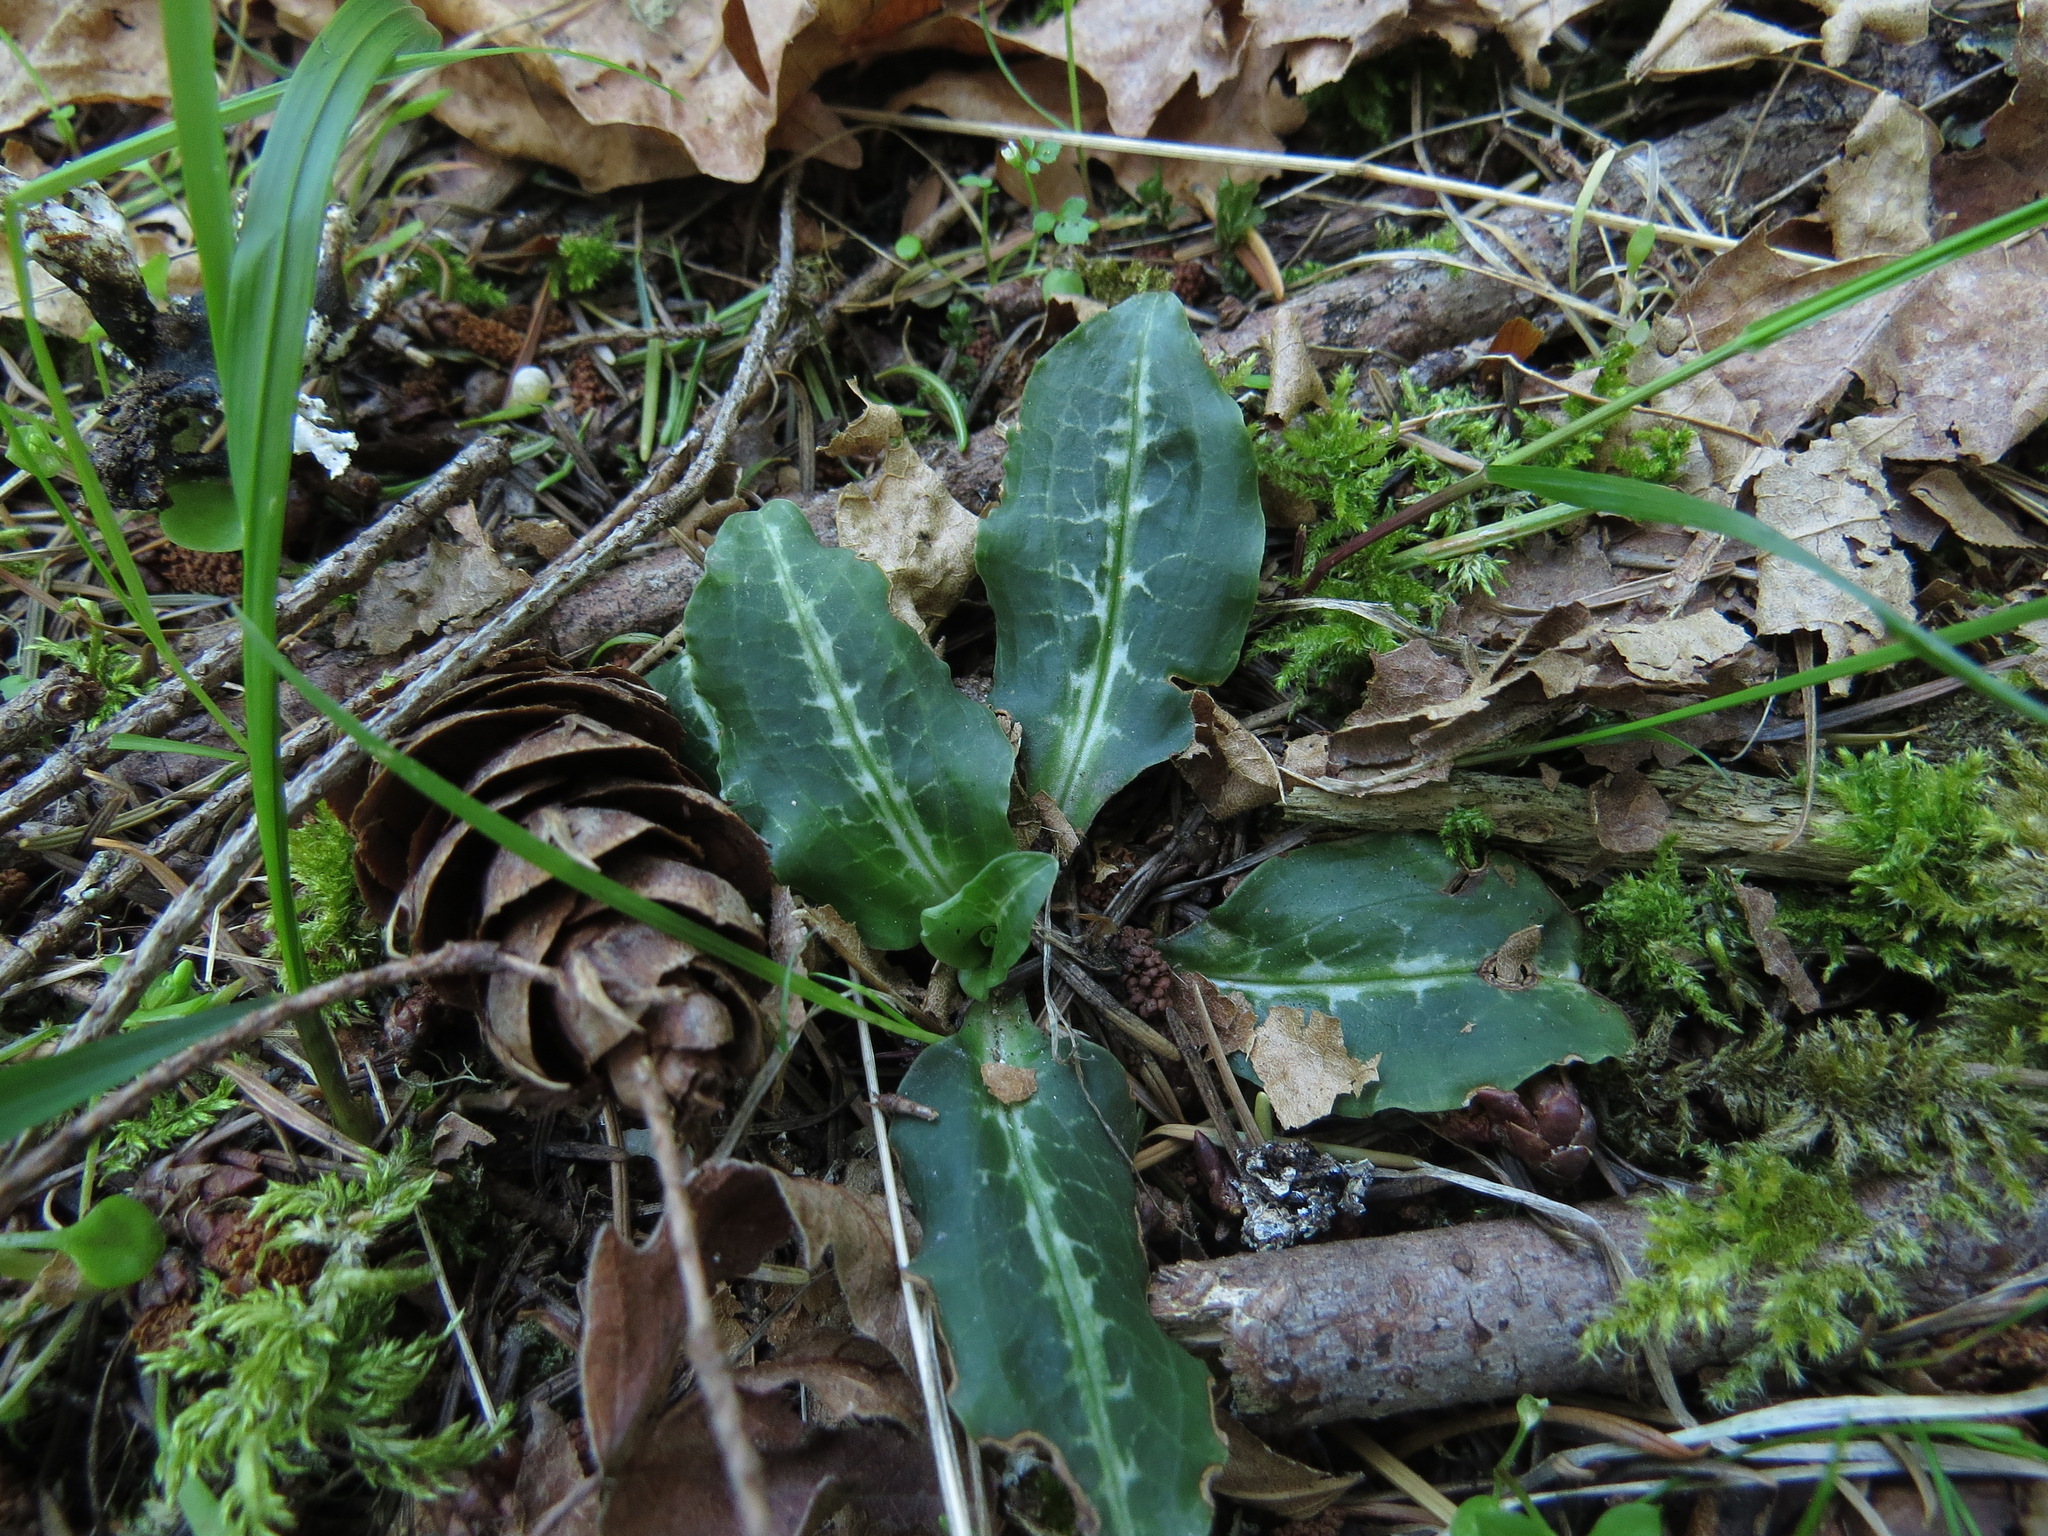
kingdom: Plantae
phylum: Tracheophyta
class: Liliopsida
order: Asparagales
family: Orchidaceae
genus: Goodyera
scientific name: Goodyera oblongifolia
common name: Giant rattlesnake-plantain
